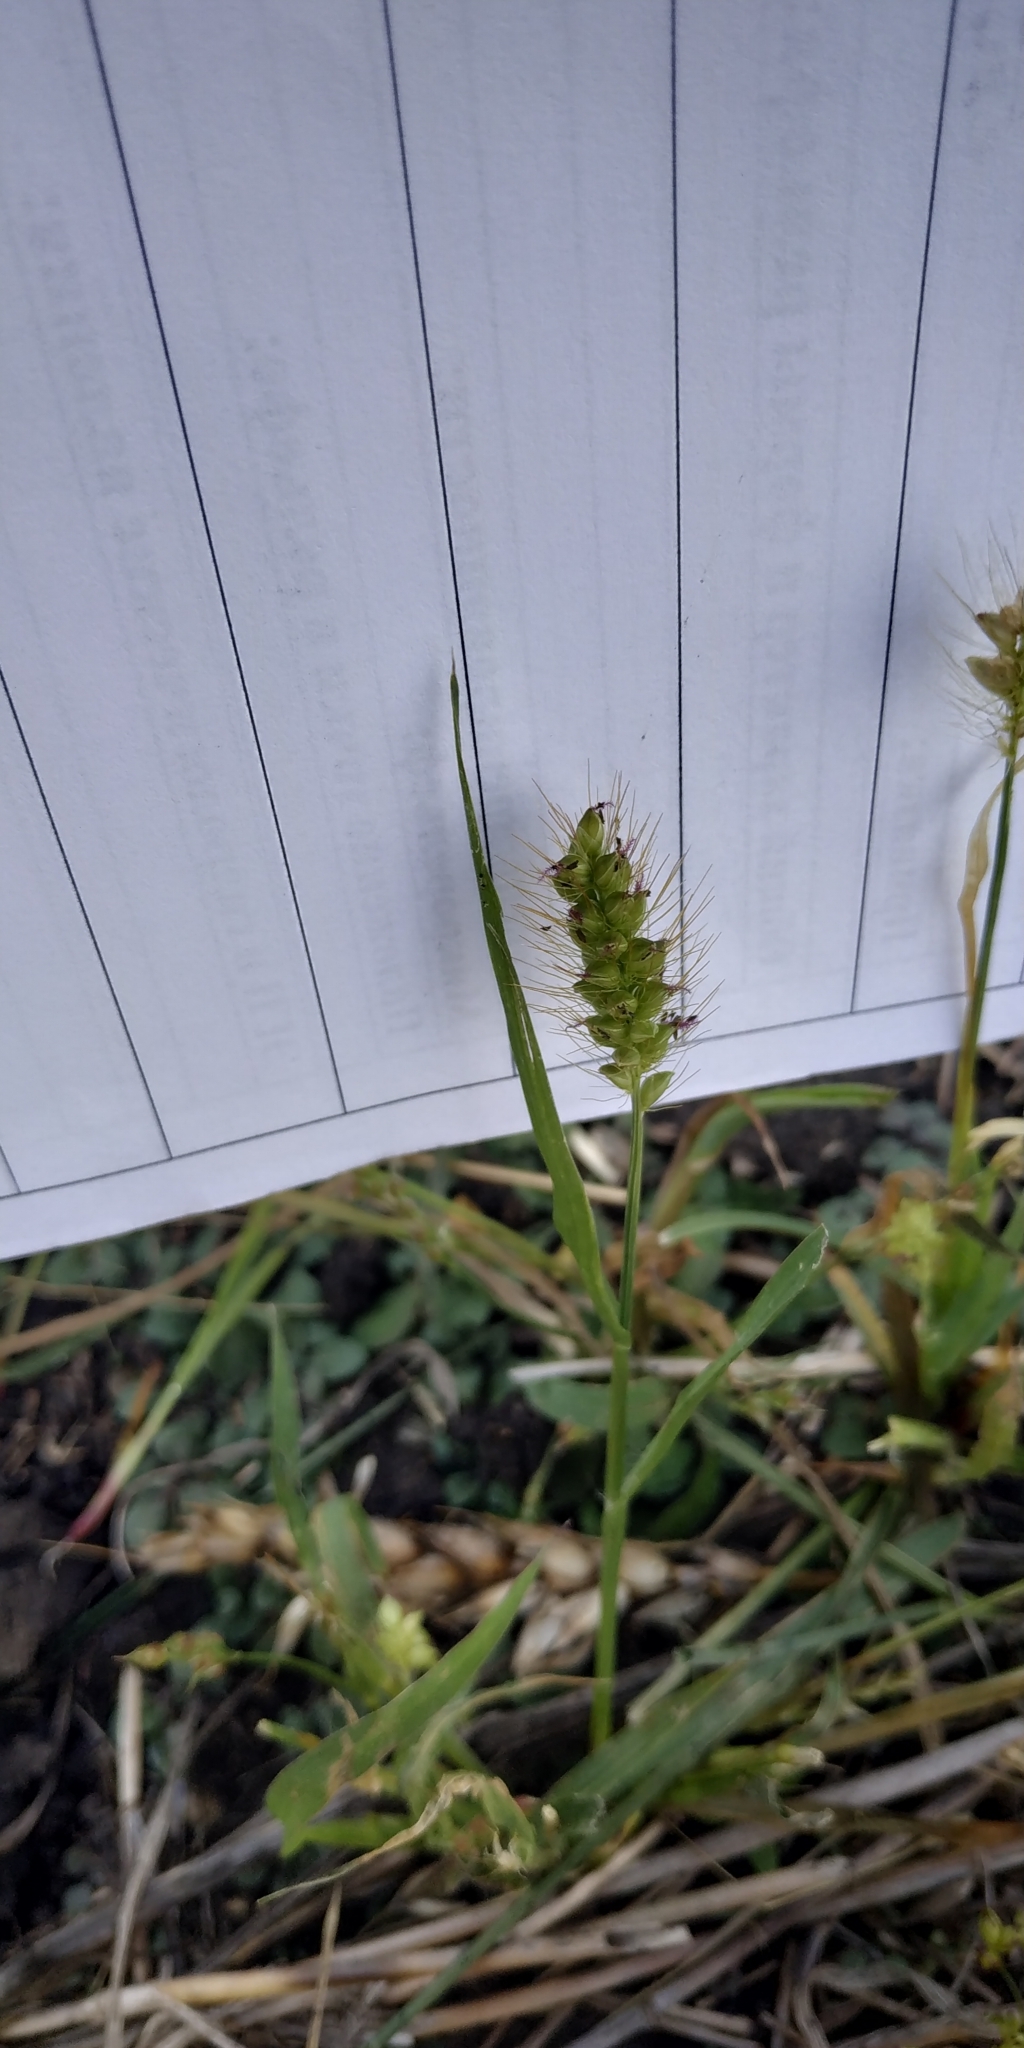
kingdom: Plantae
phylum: Tracheophyta
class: Liliopsida
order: Poales
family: Poaceae
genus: Setaria
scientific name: Setaria pumila
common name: Yellow bristle-grass
